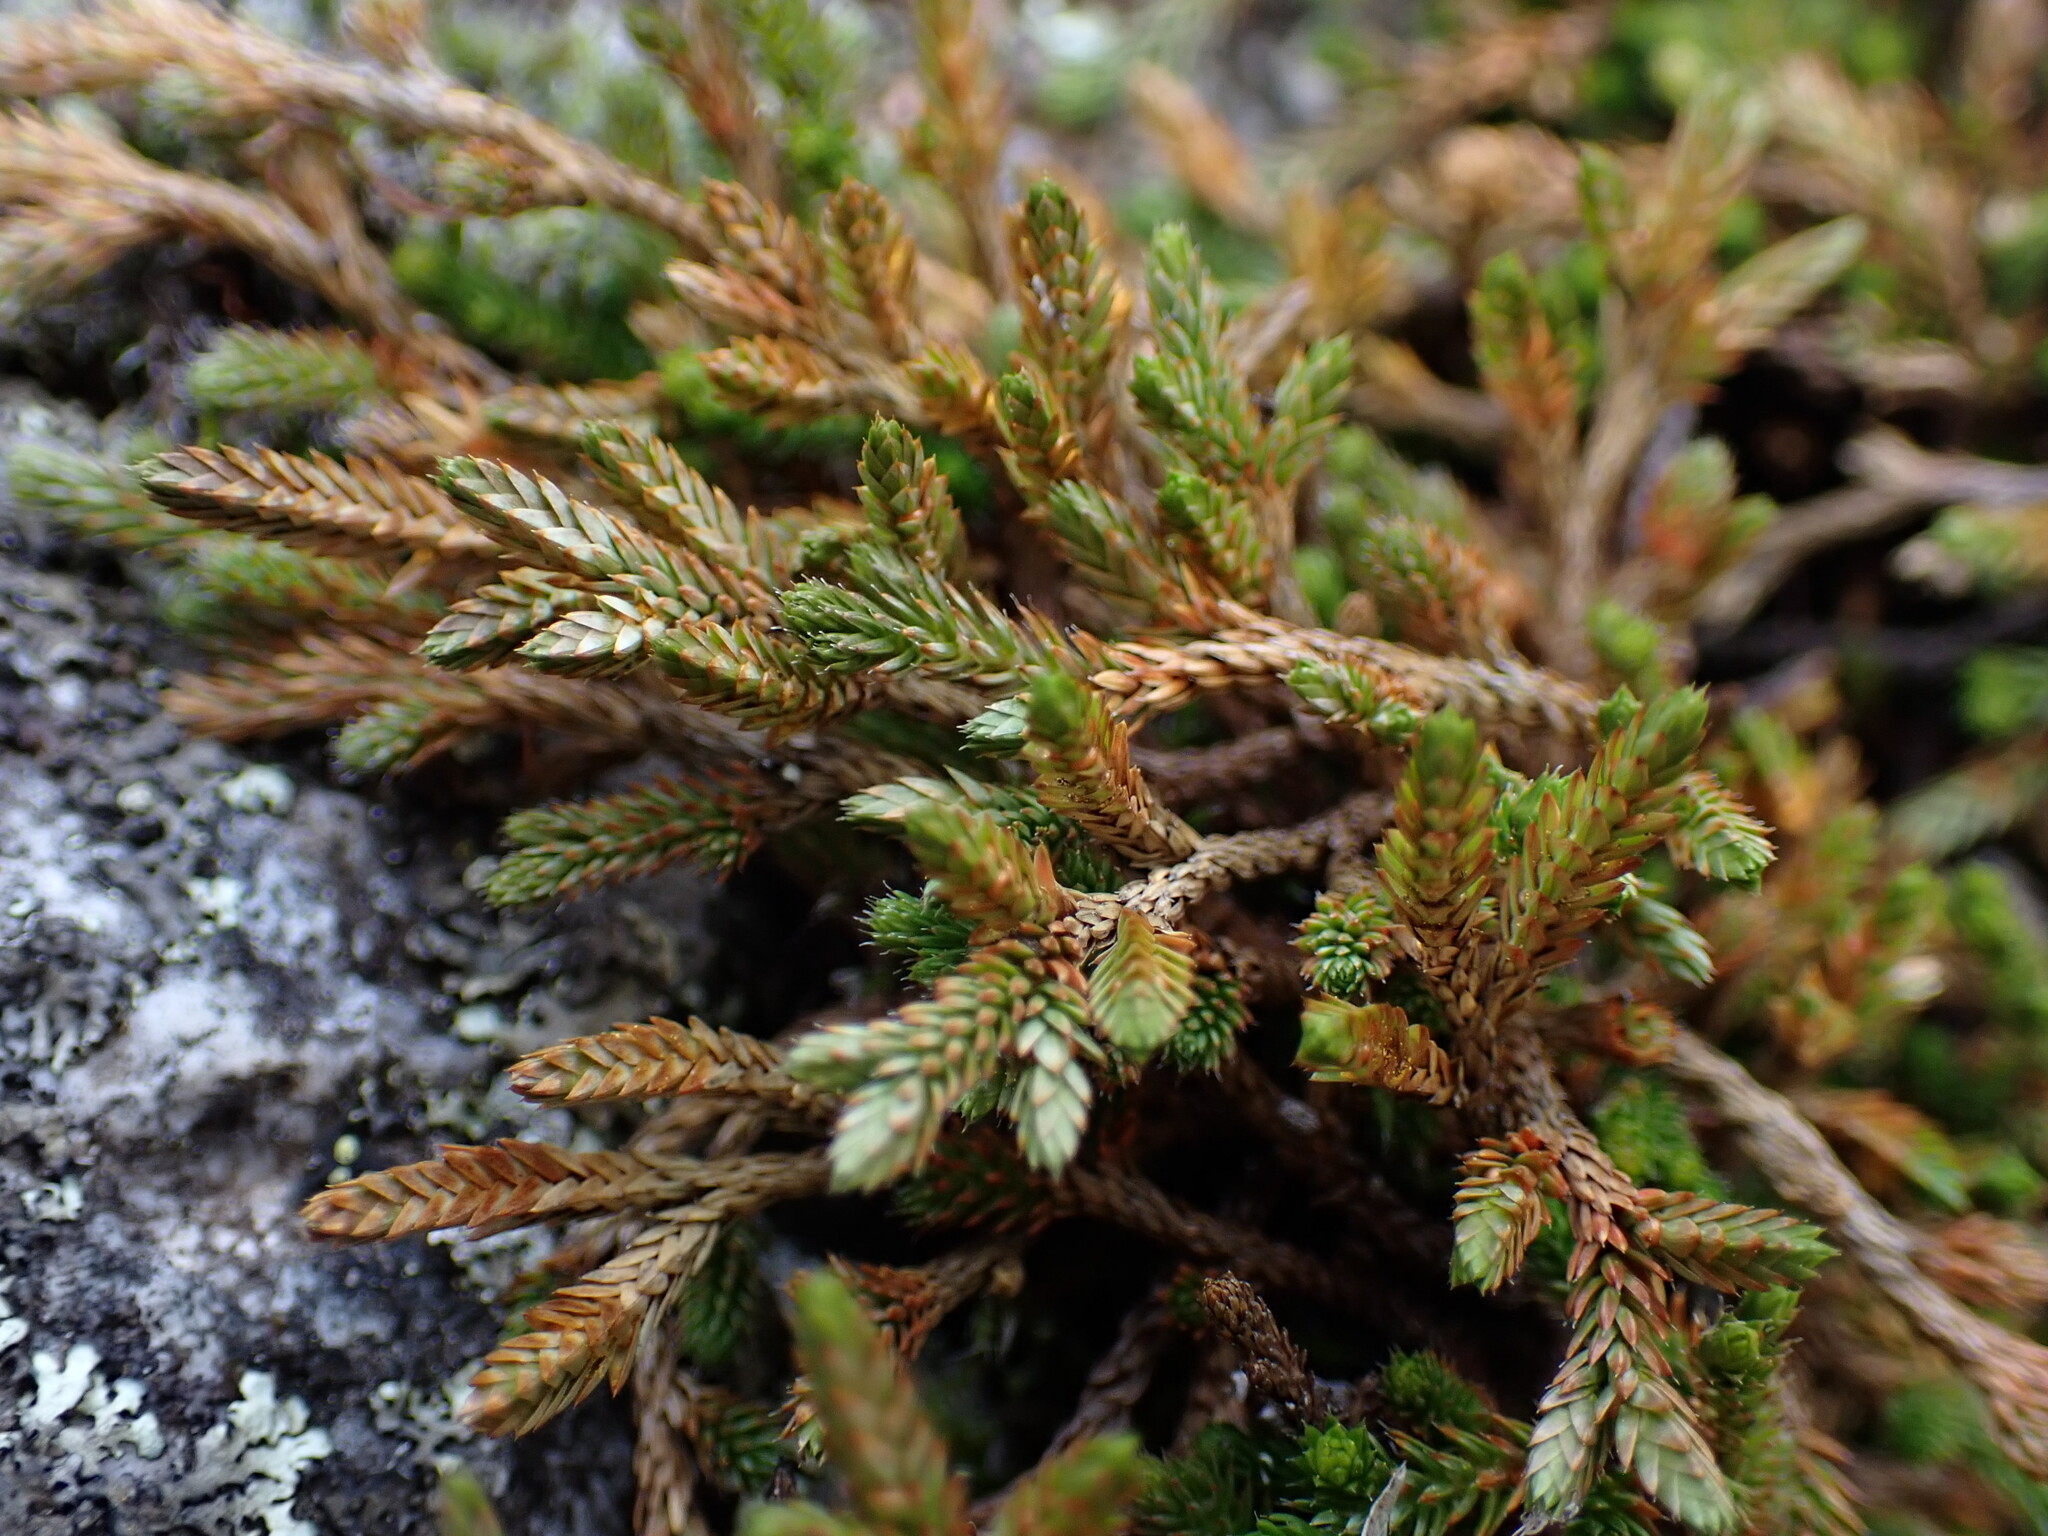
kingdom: Plantae
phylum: Tracheophyta
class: Lycopodiopsida
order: Selaginellales
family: Selaginellaceae
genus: Selaginella
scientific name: Selaginella wallacei
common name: Wallace's selaginella
